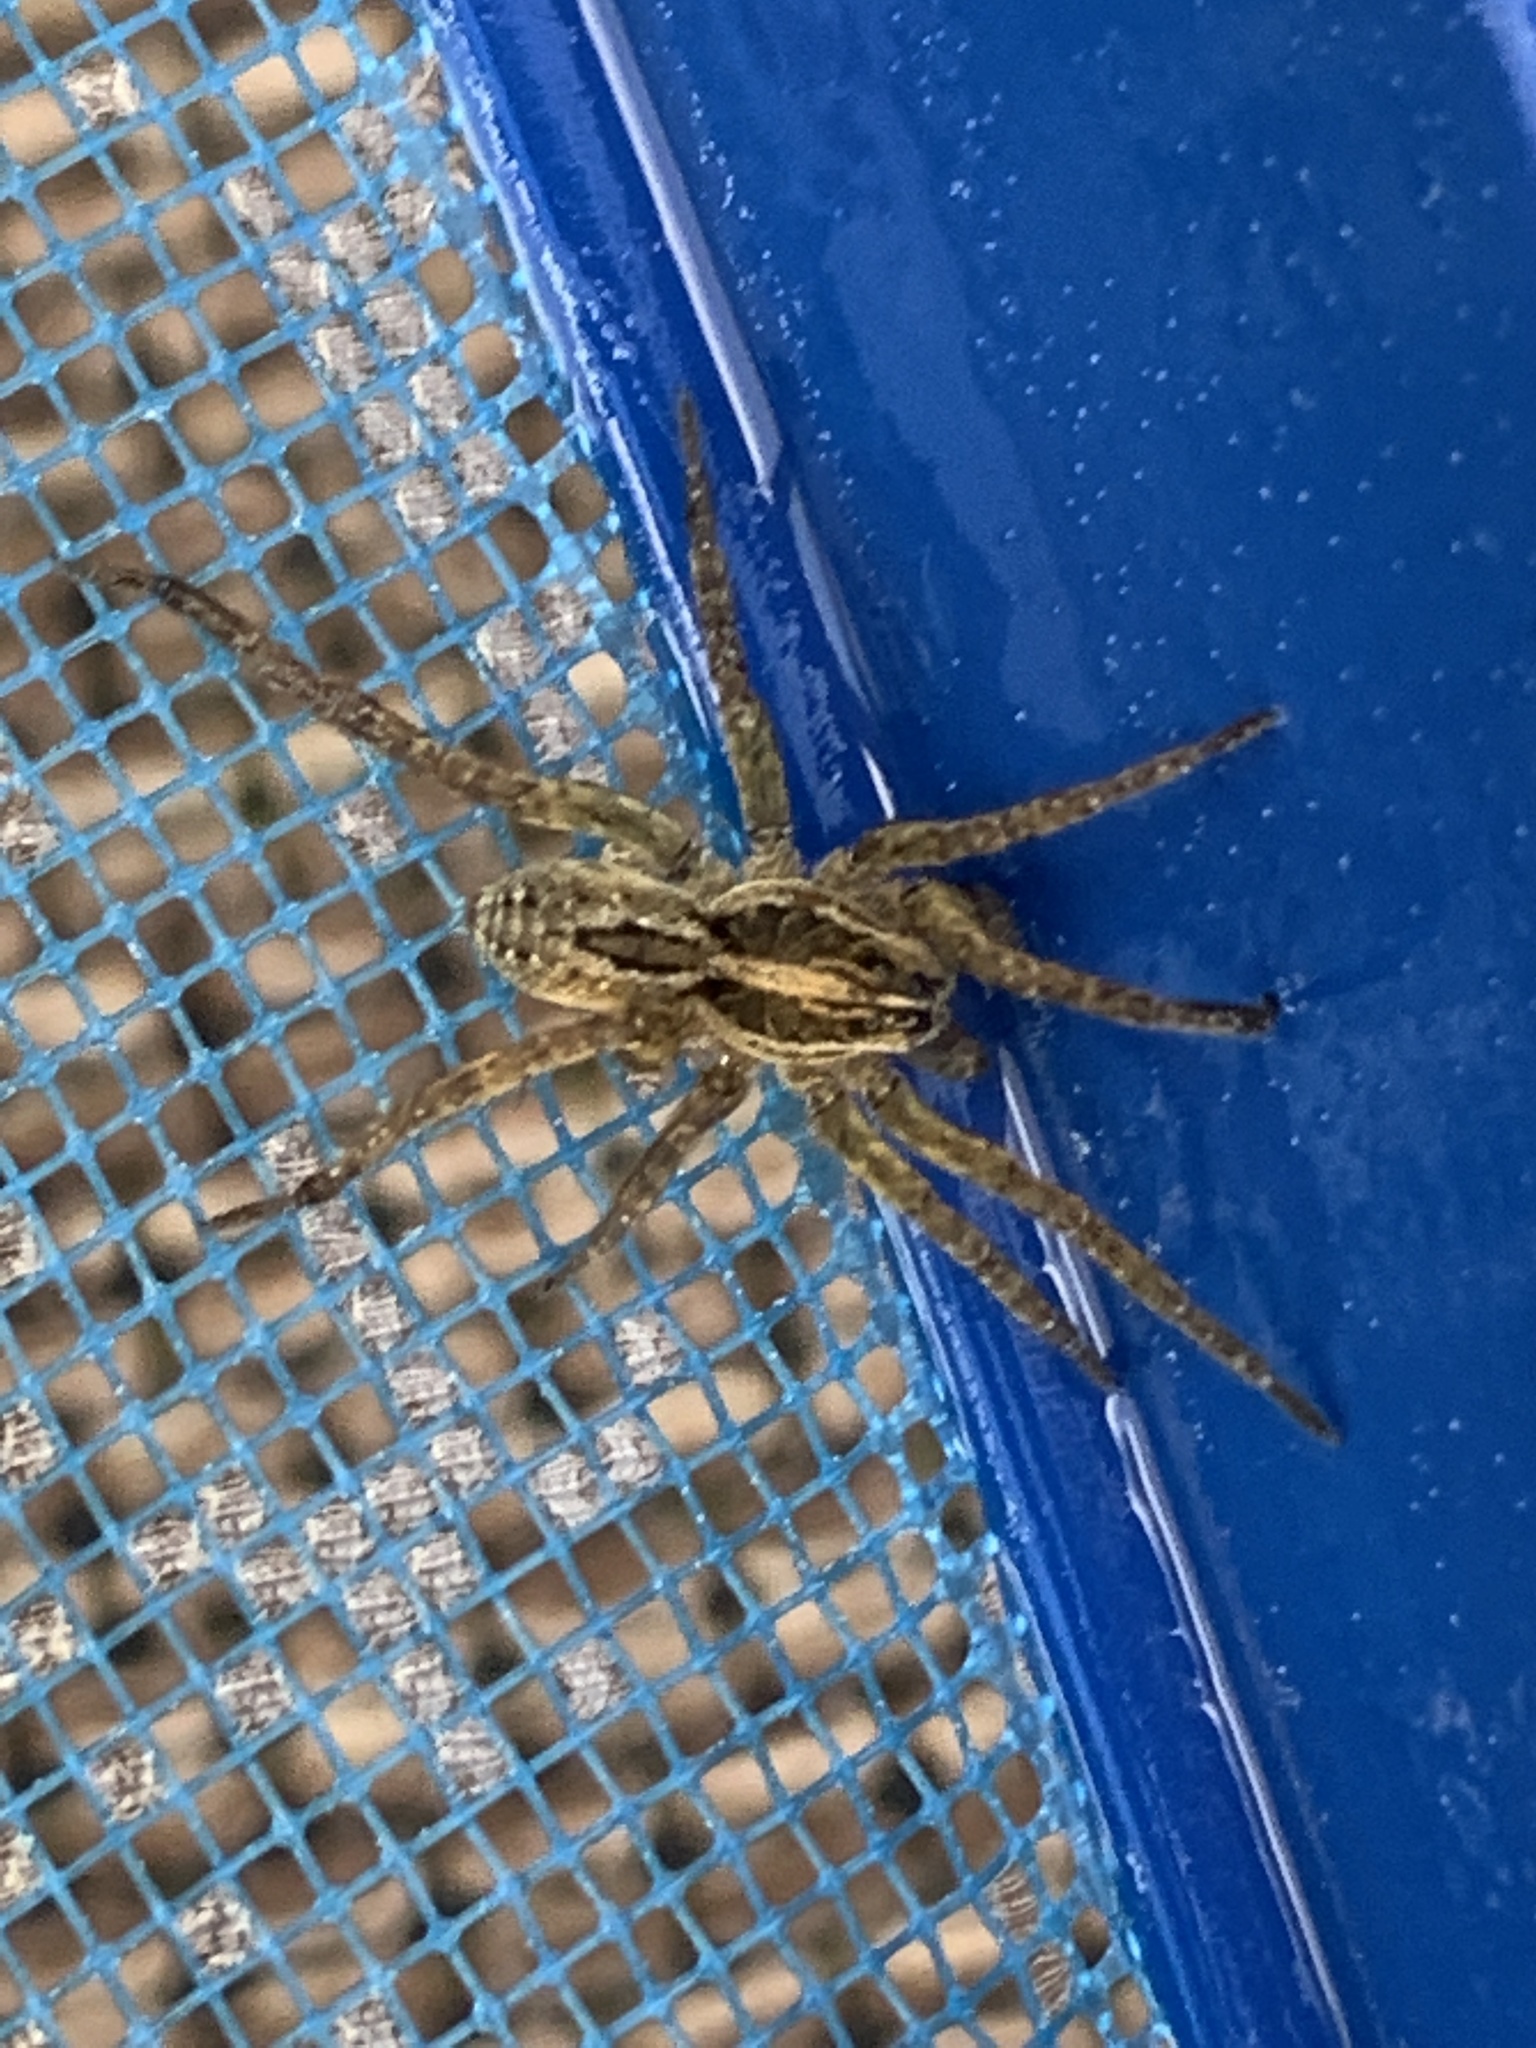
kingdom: Animalia
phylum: Arthropoda
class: Arachnida
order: Araneae
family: Lycosidae
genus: Tigrosa
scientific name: Tigrosa annexa
